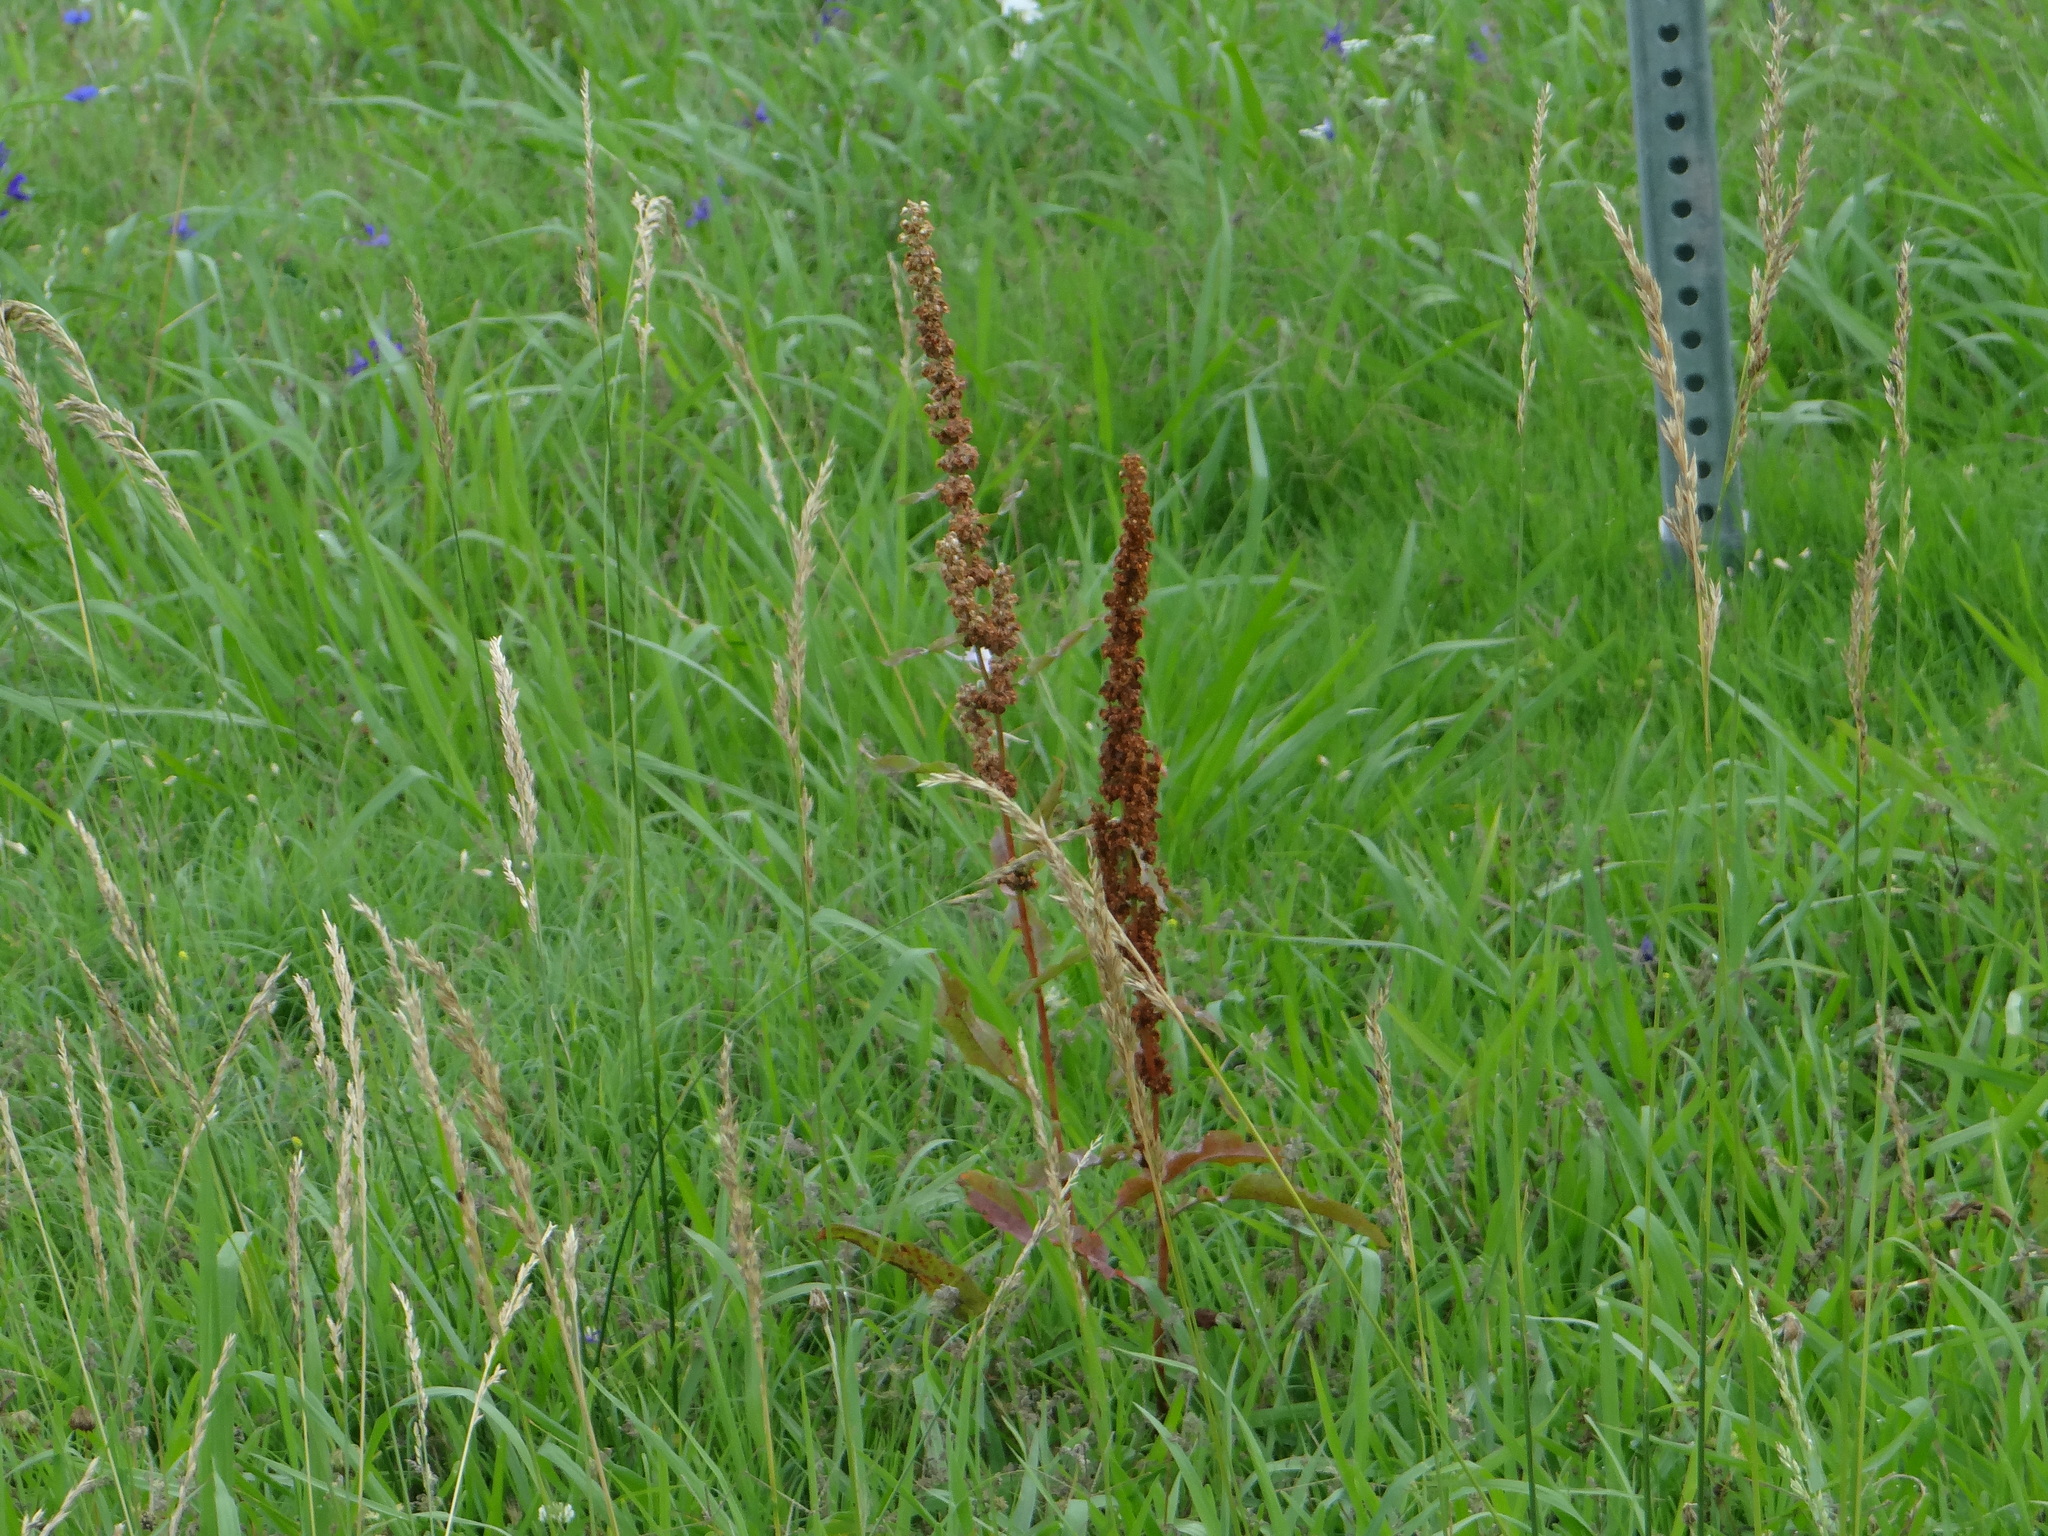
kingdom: Plantae
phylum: Tracheophyta
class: Magnoliopsida
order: Caryophyllales
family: Polygonaceae
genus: Rumex
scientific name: Rumex crispus
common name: Curled dock
